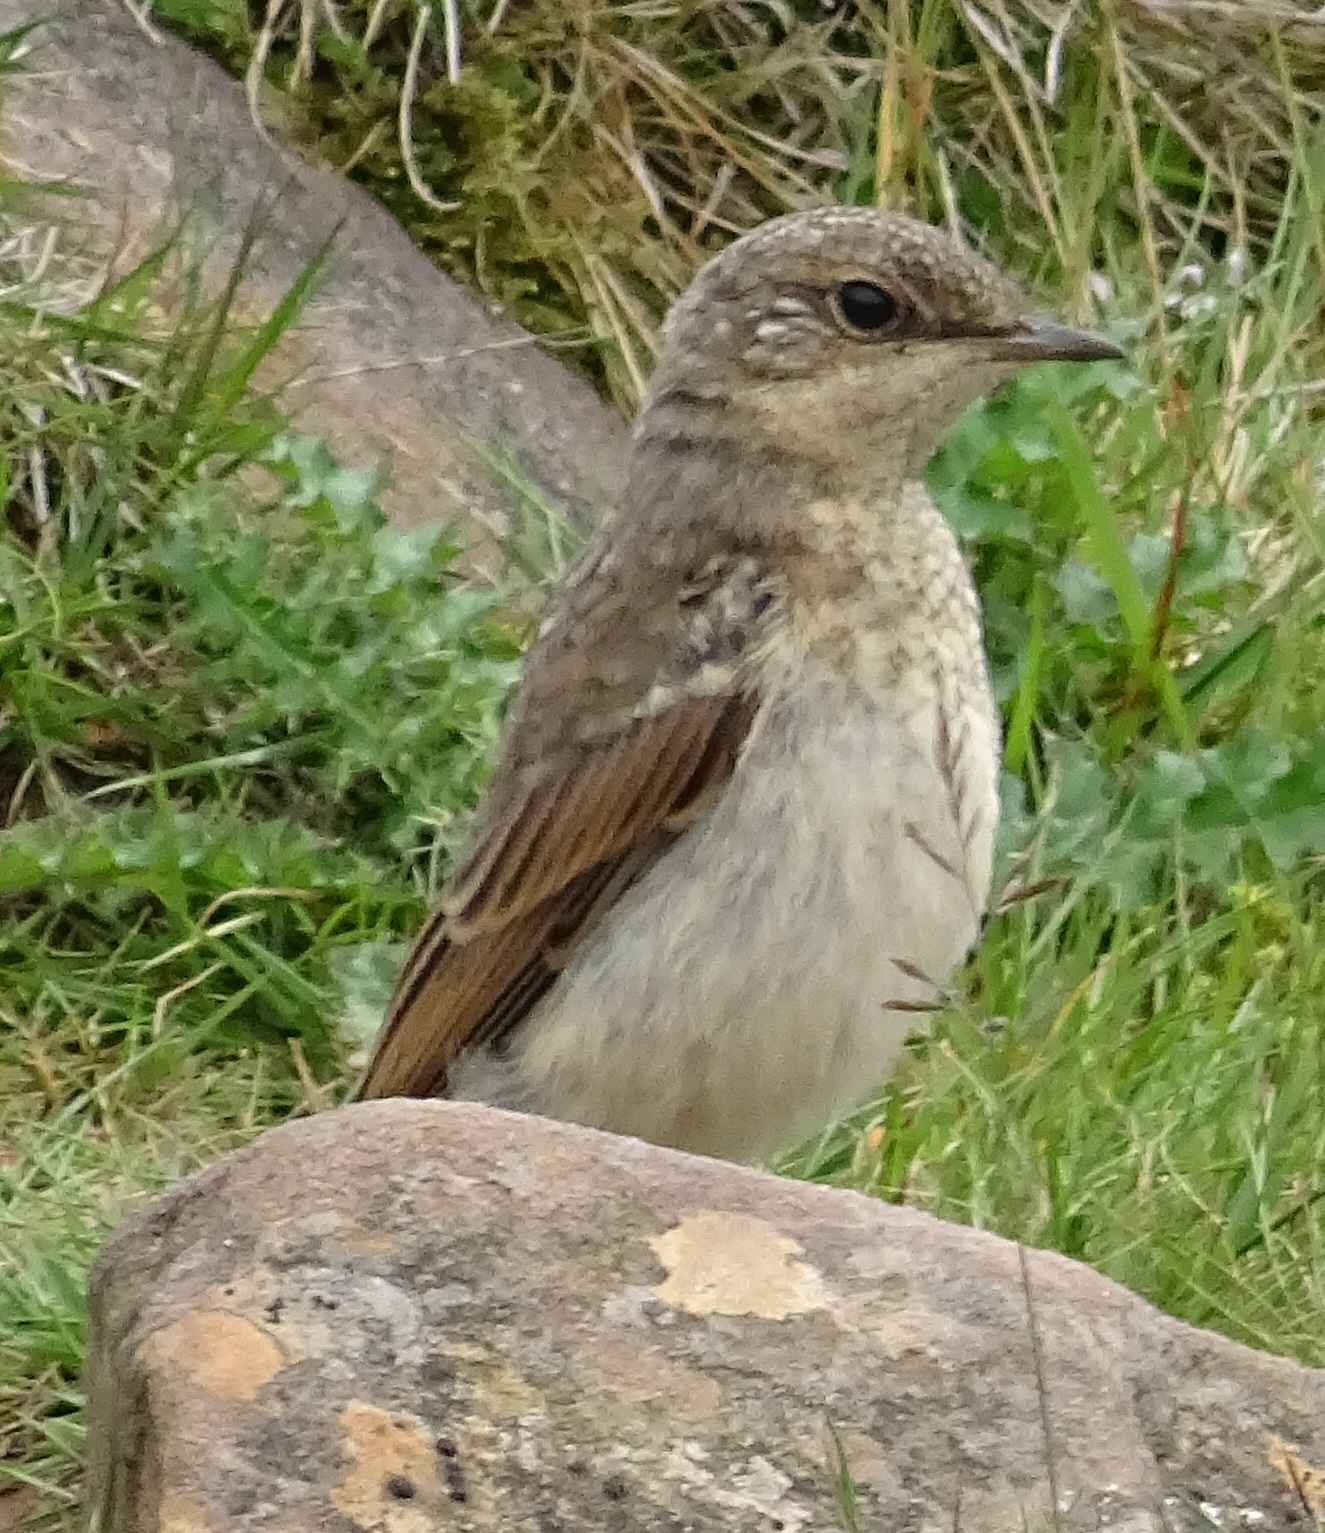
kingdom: Animalia
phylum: Chordata
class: Aves
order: Passeriformes
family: Muscicapidae
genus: Oenanthe
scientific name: Oenanthe oenanthe
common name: Northern wheatear
